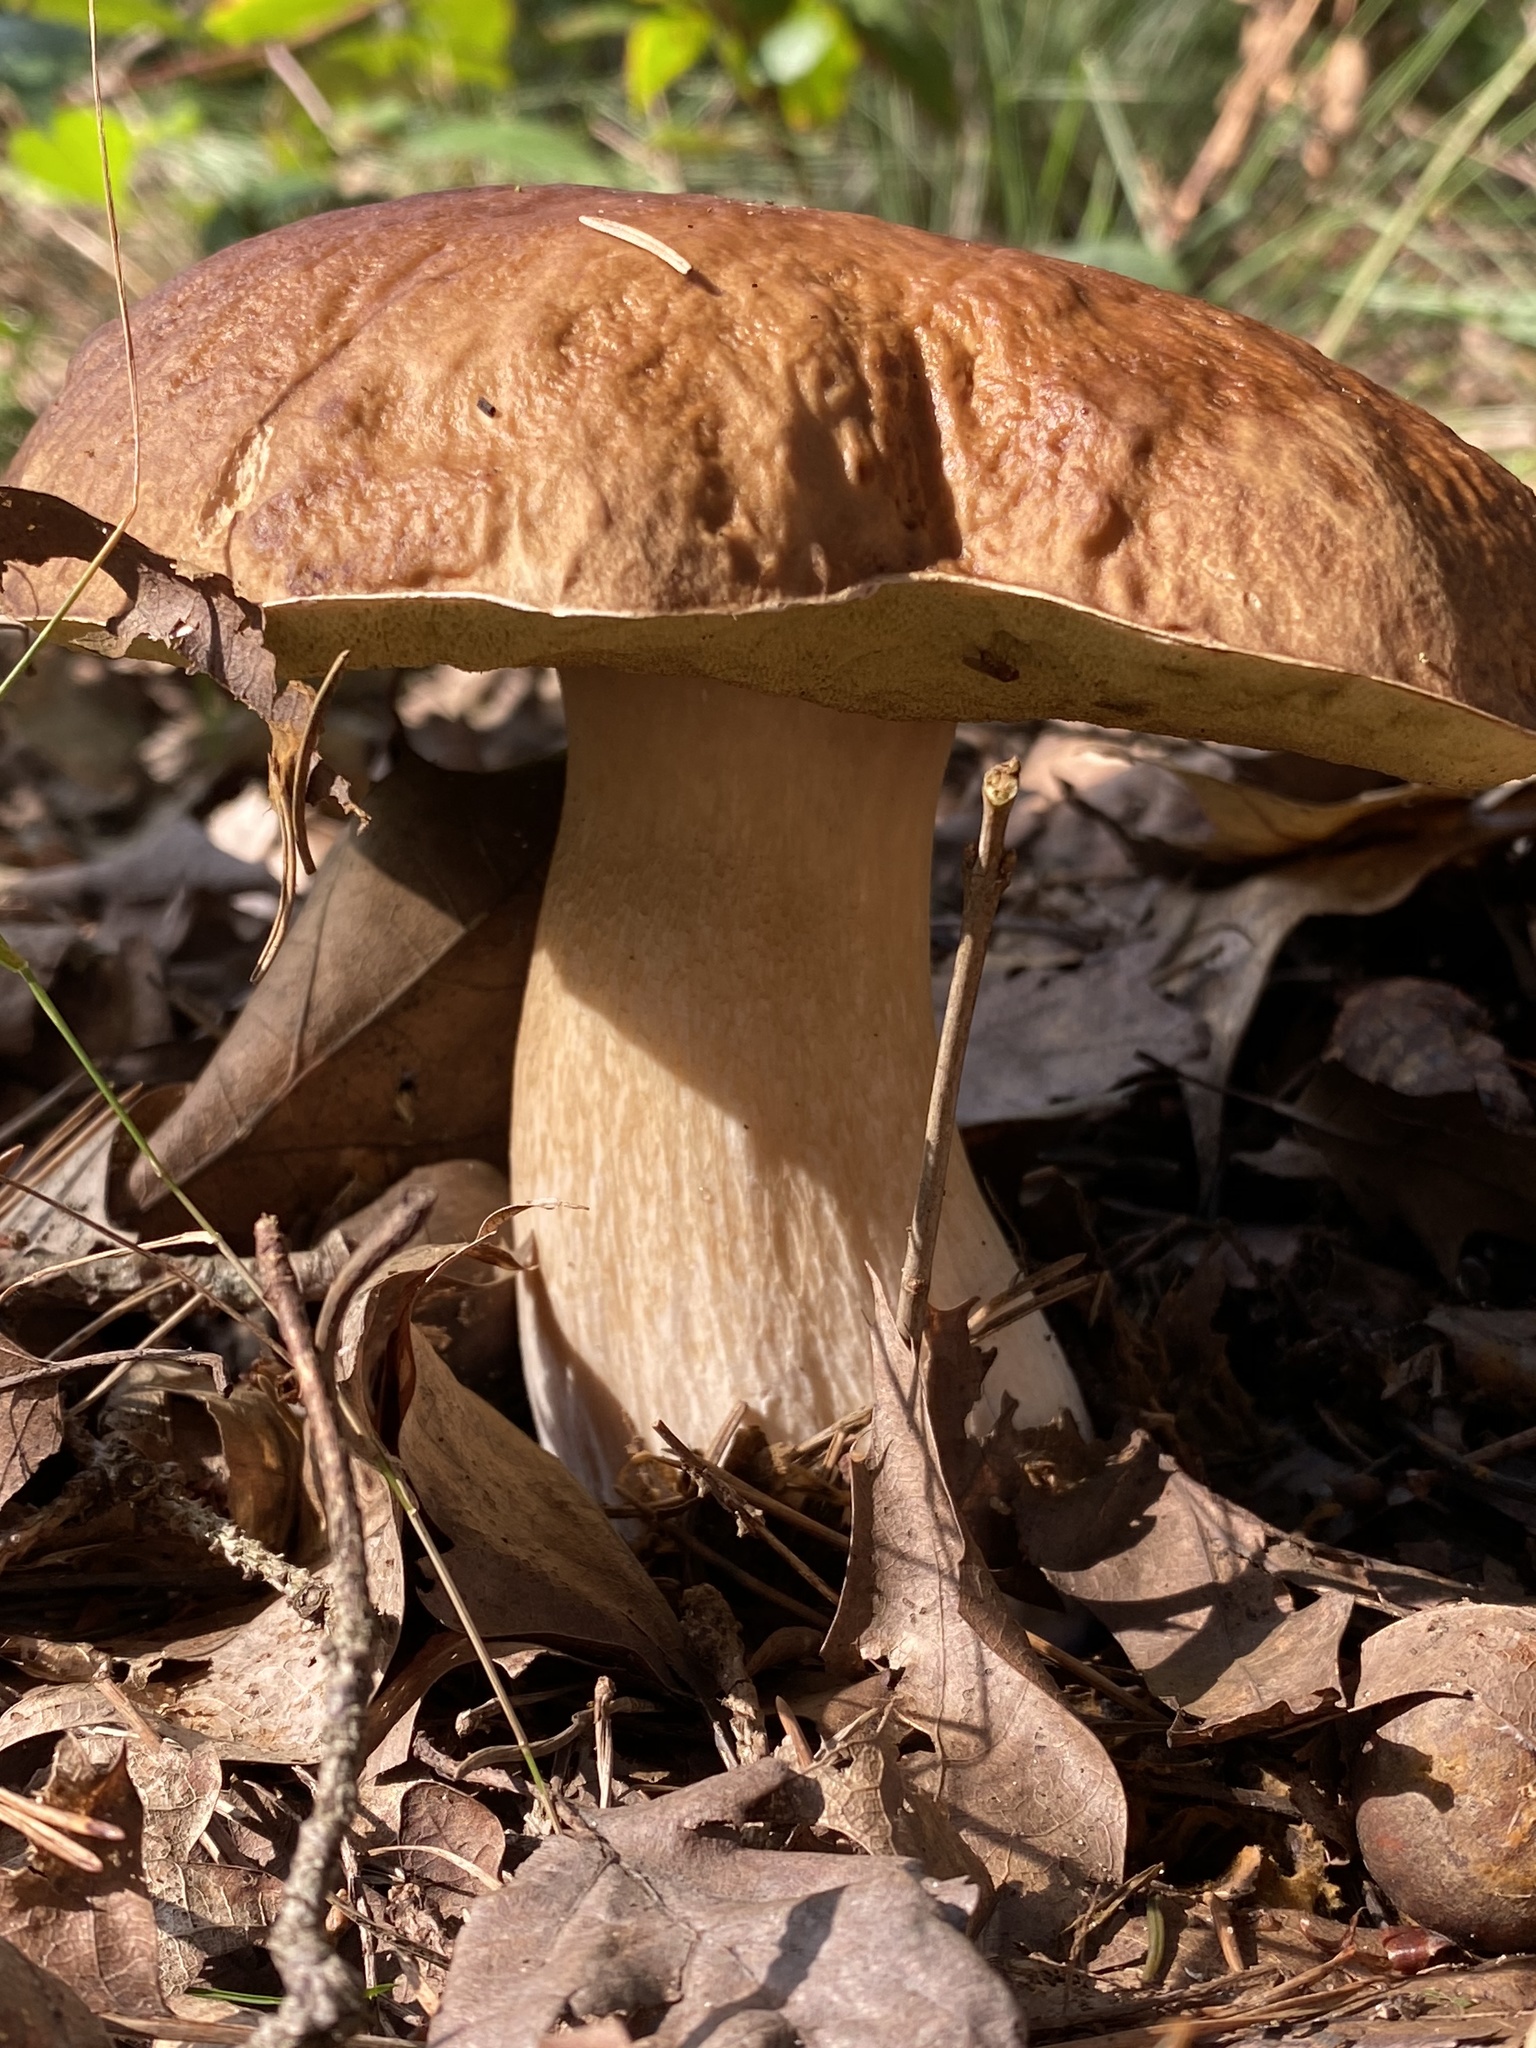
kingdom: Fungi
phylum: Basidiomycota
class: Agaricomycetes
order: Boletales
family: Boletaceae
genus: Boletus
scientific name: Boletus edulis
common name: Cep
